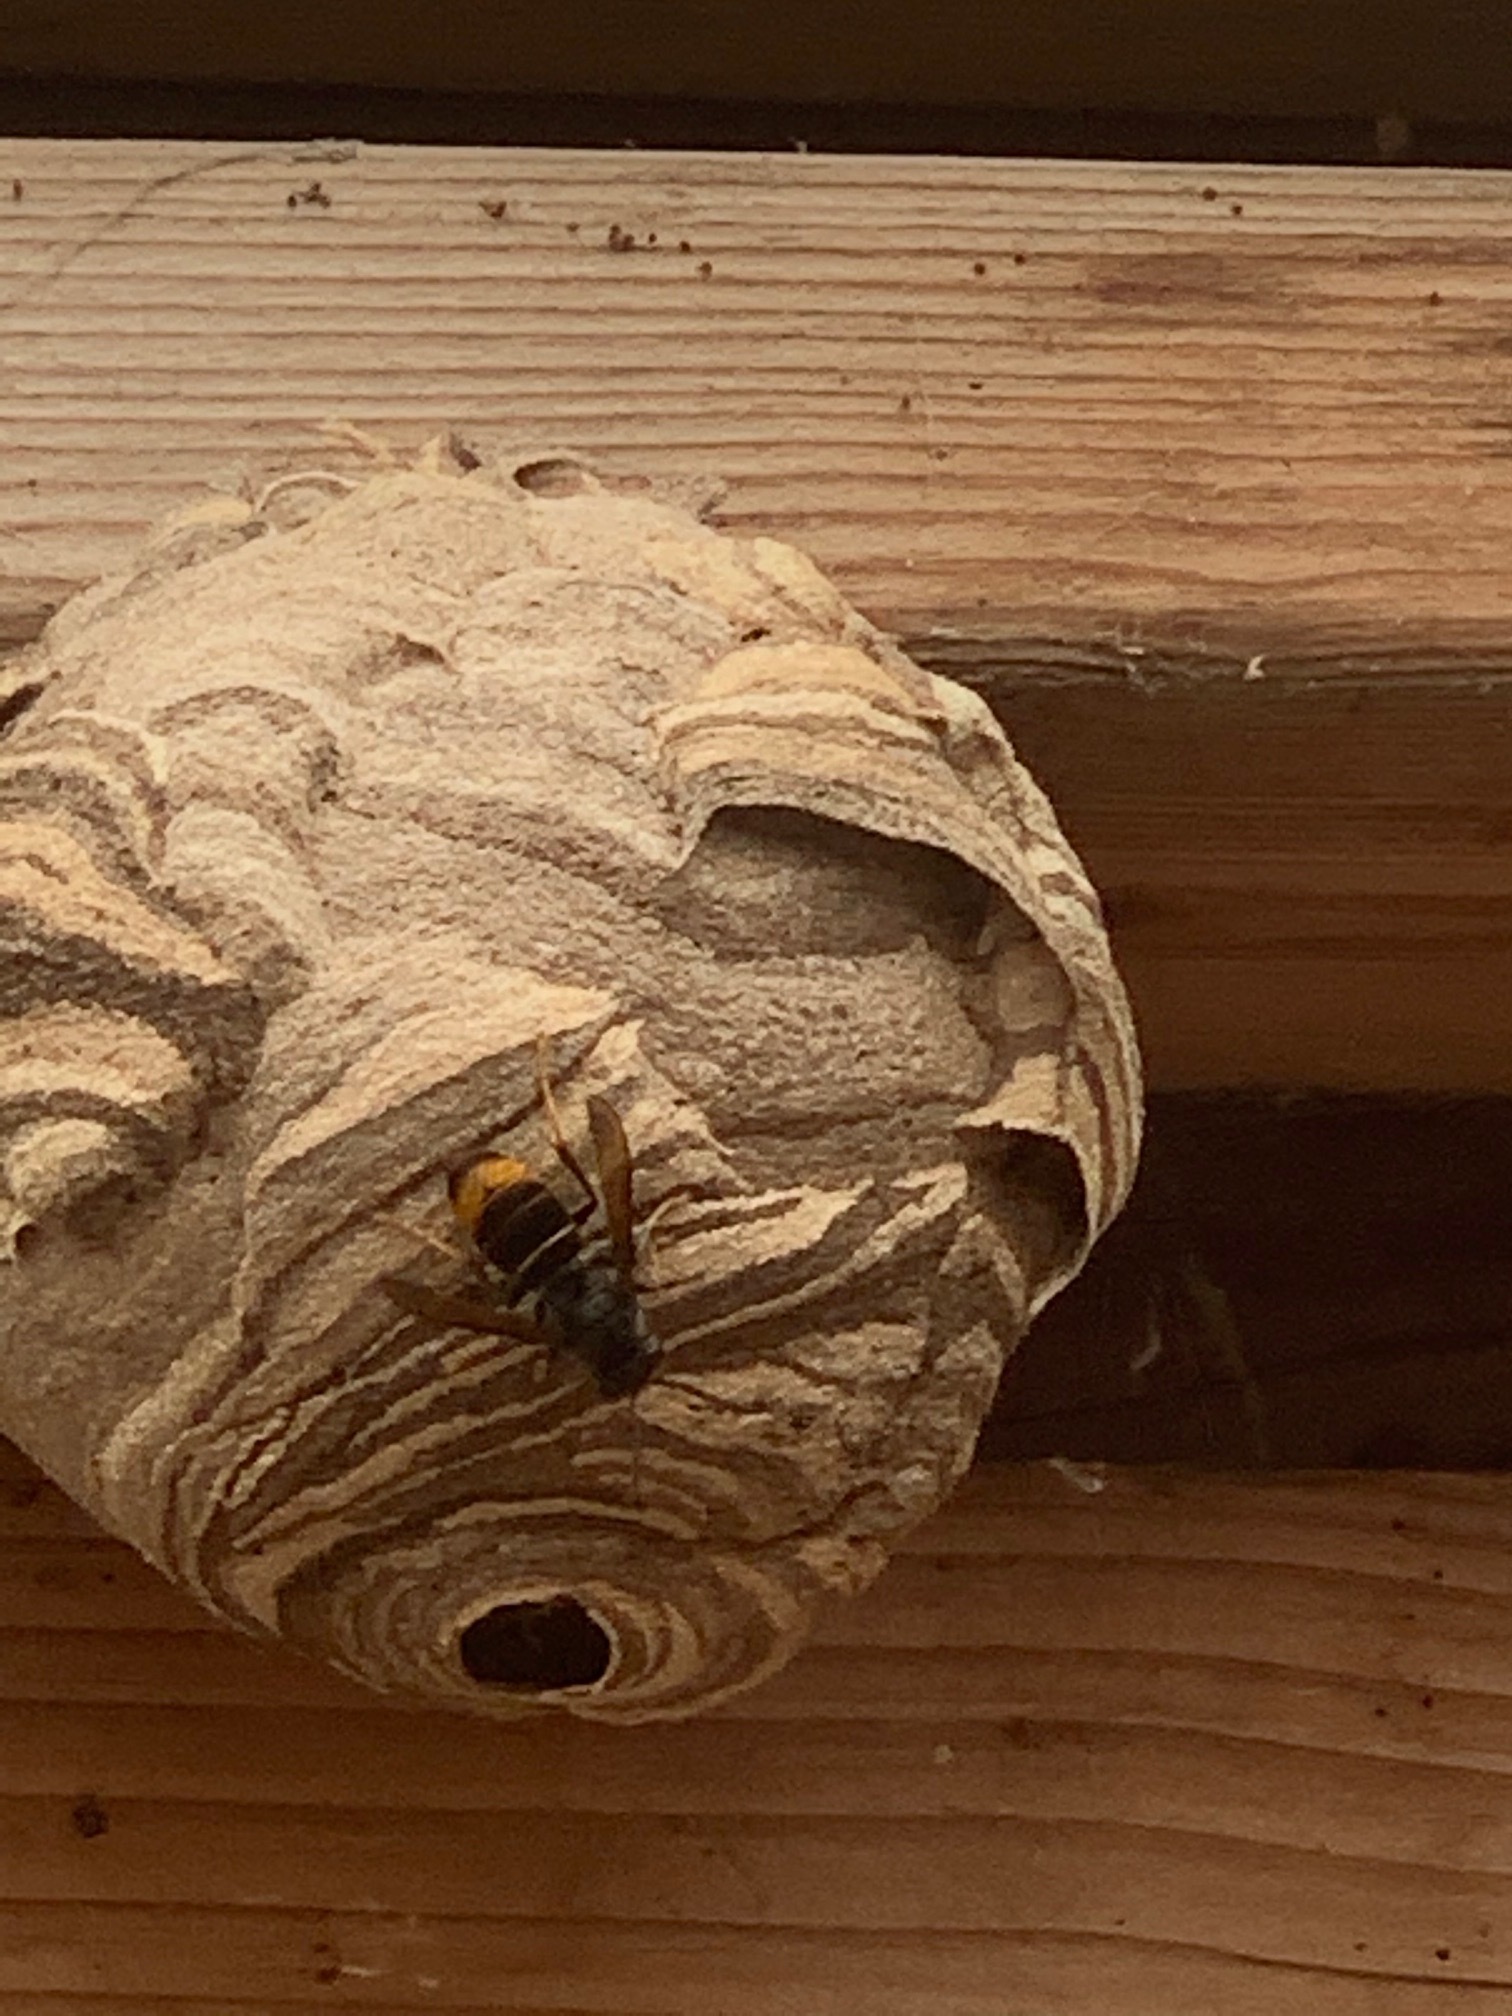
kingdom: Animalia
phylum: Arthropoda
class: Insecta
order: Hymenoptera
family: Vespidae
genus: Vespa
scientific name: Vespa velutina
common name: Asian hornet
